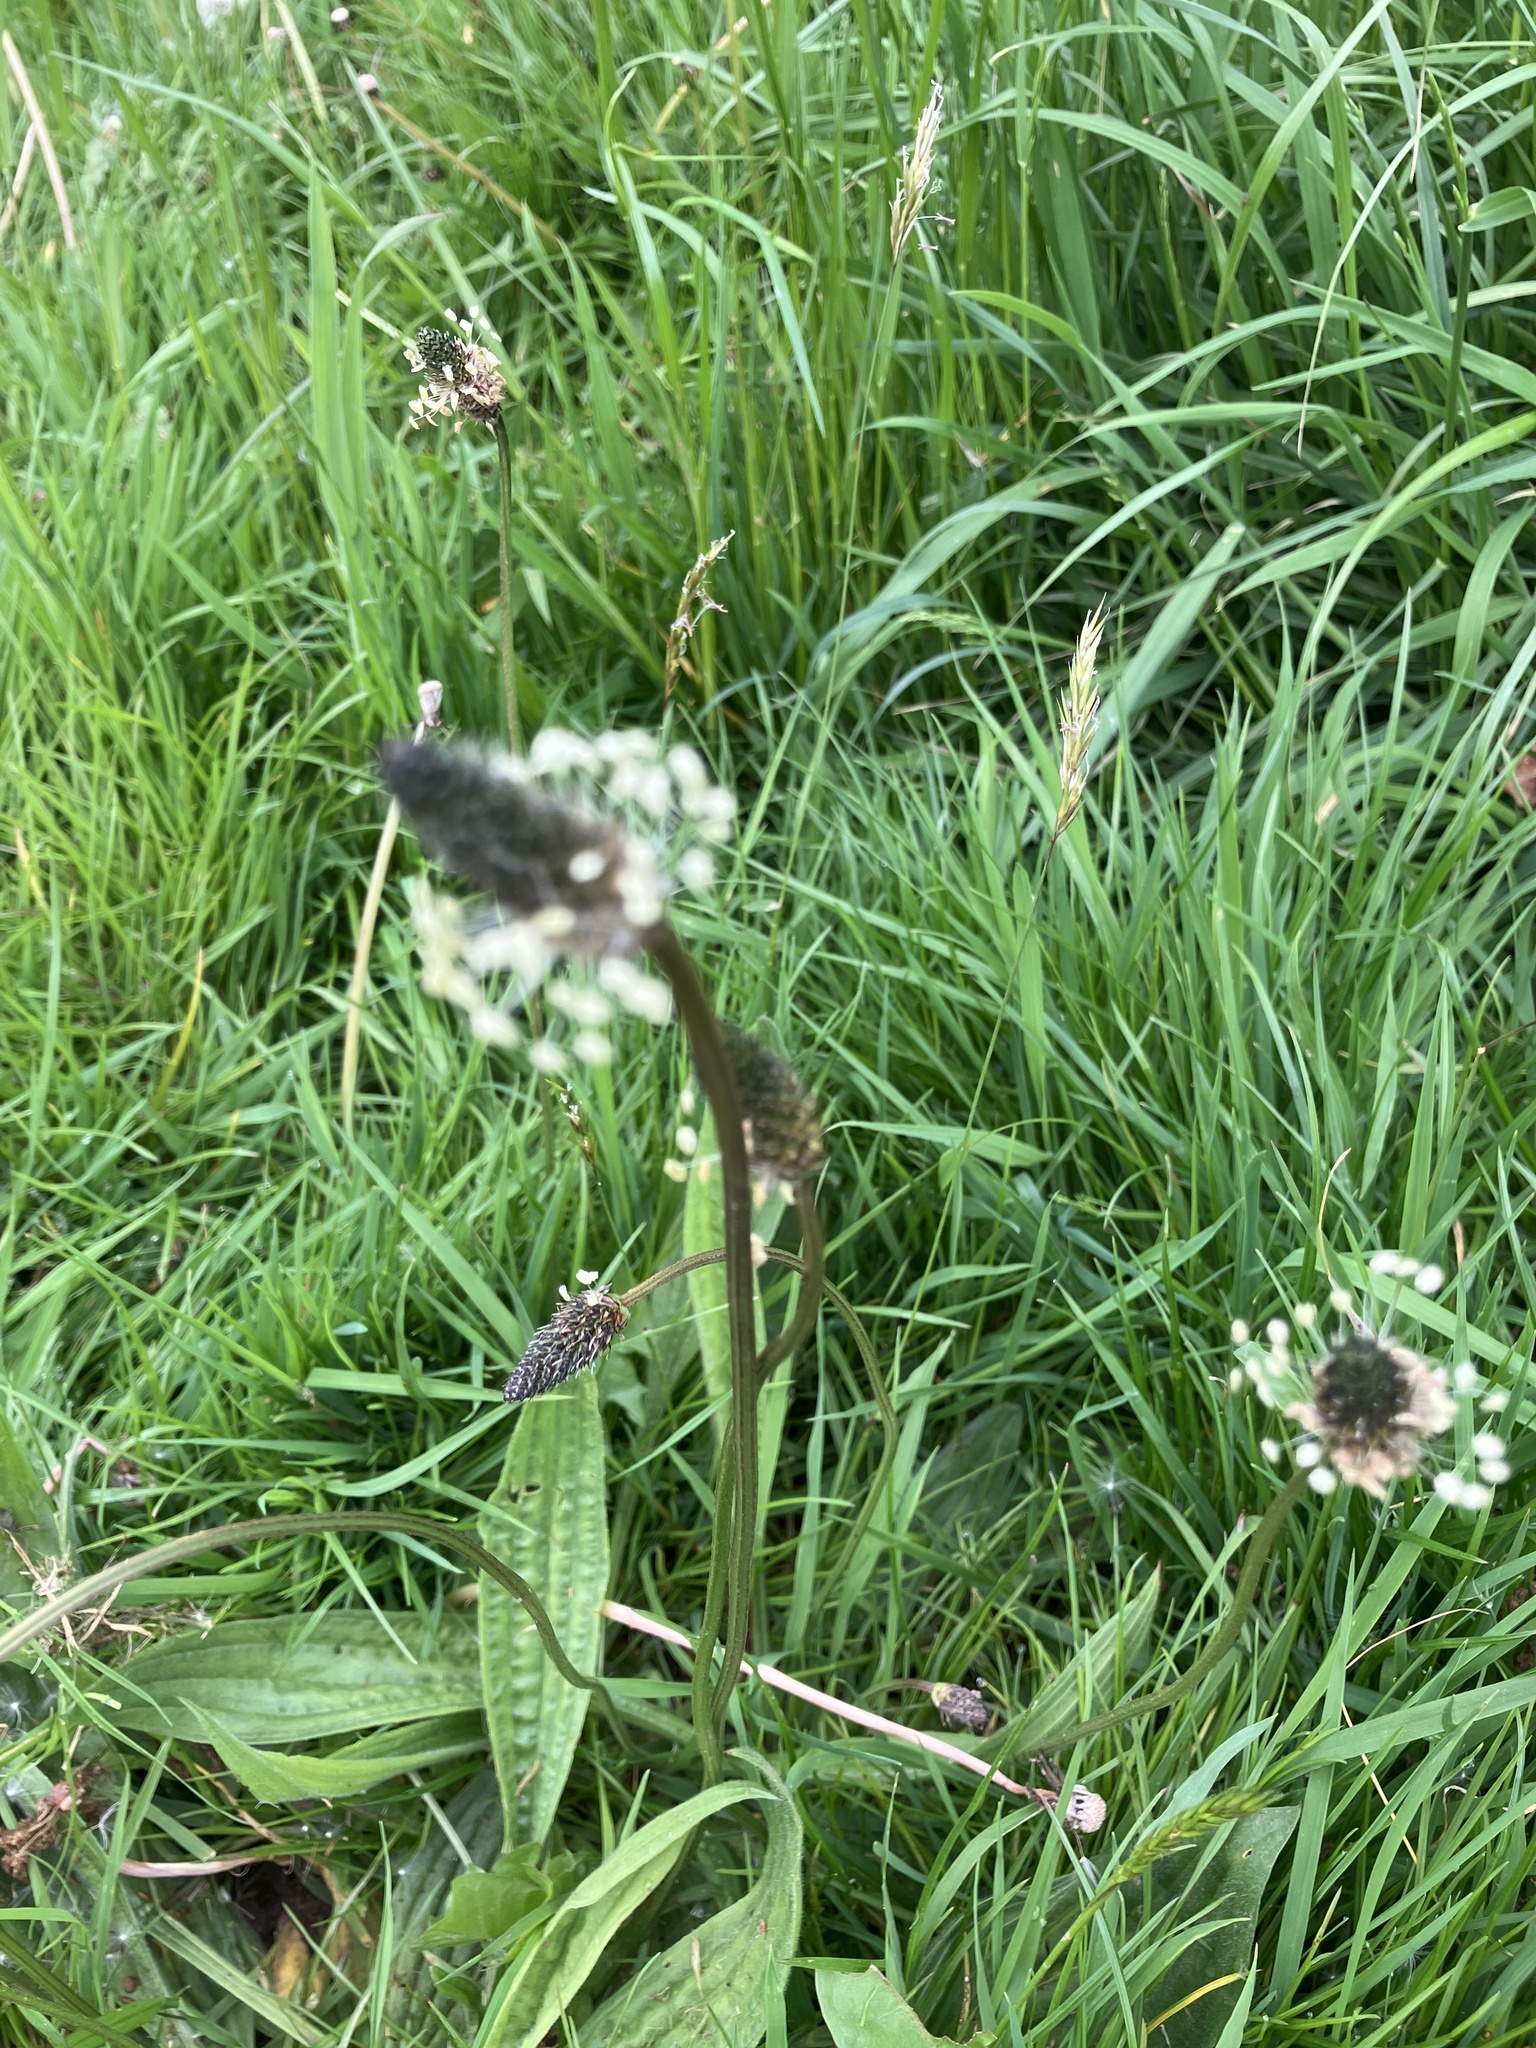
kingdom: Plantae
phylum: Tracheophyta
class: Magnoliopsida
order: Lamiales
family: Plantaginaceae
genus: Plantago
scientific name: Plantago lanceolata
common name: Ribwort plantain
